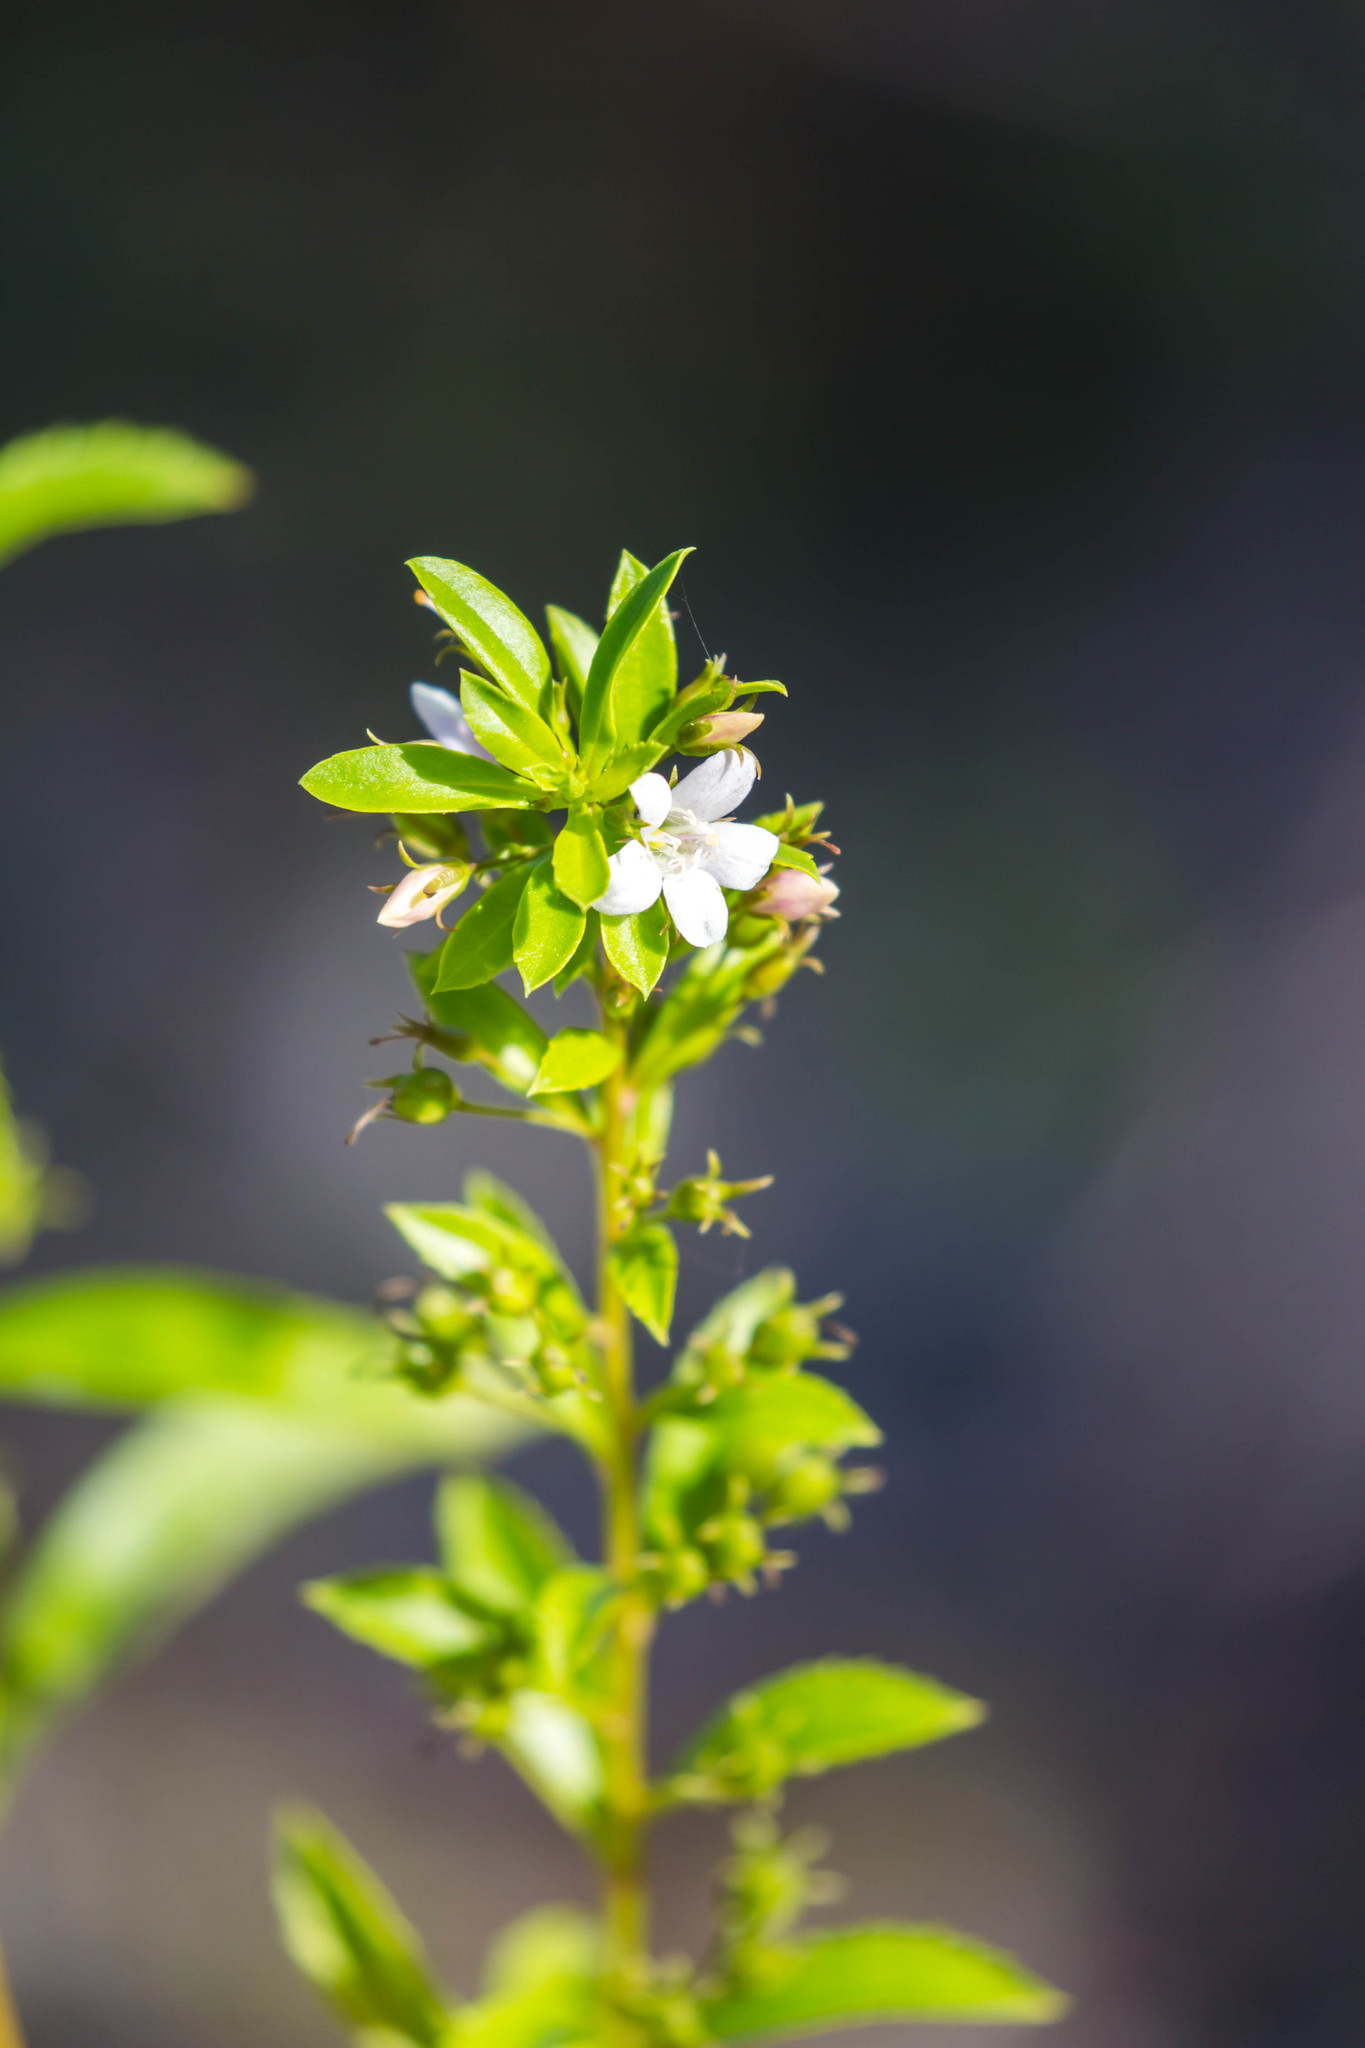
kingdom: Plantae
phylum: Tracheophyta
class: Magnoliopsida
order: Lamiales
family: Scrophulariaceae
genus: Capraria
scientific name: Capraria biflora
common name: Goatweed
